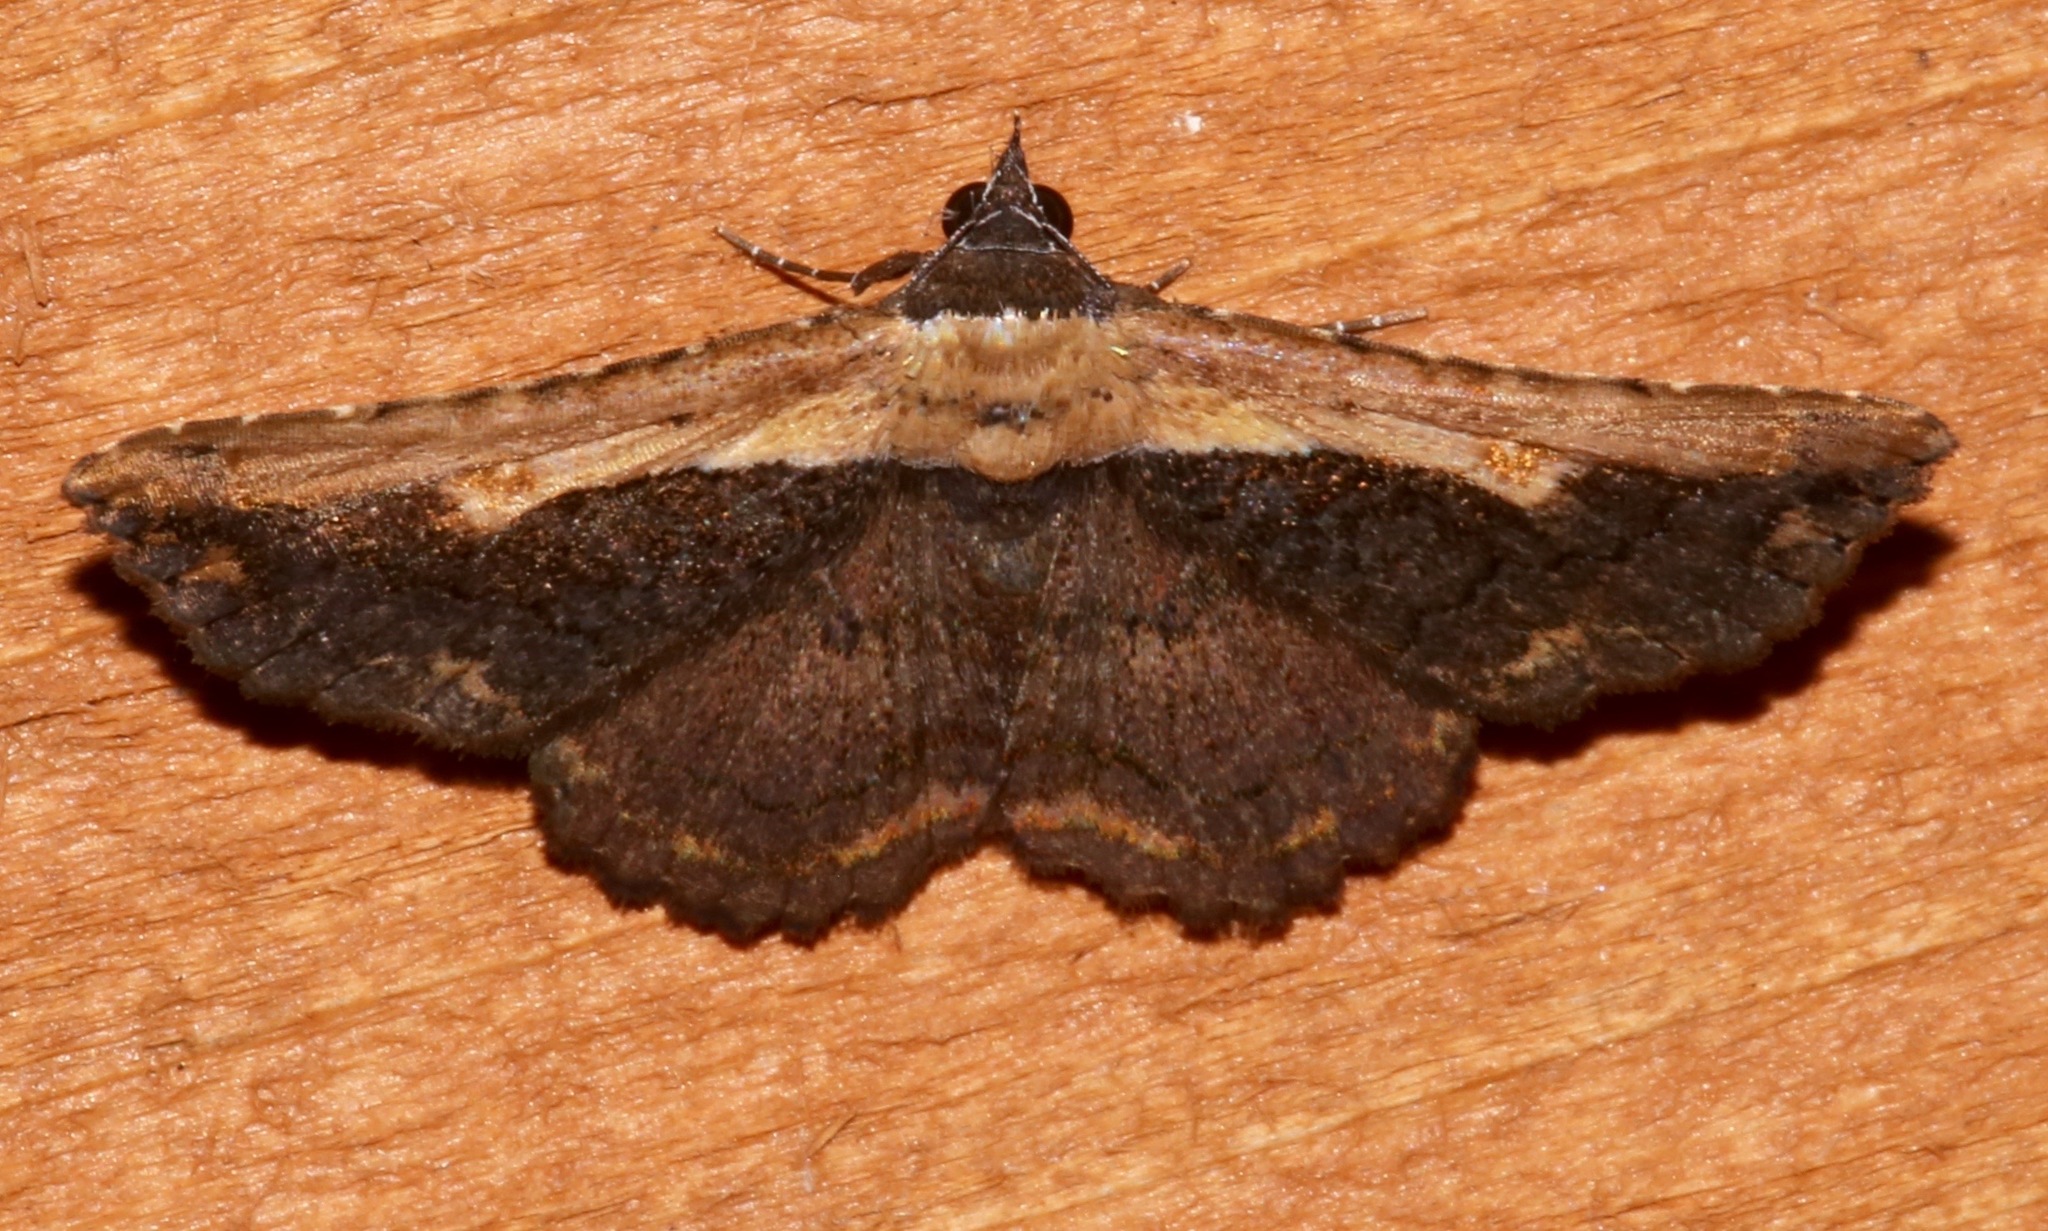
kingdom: Animalia
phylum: Arthropoda
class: Insecta
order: Lepidoptera
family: Erebidae
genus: Selenisa
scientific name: Selenisa sueroides
